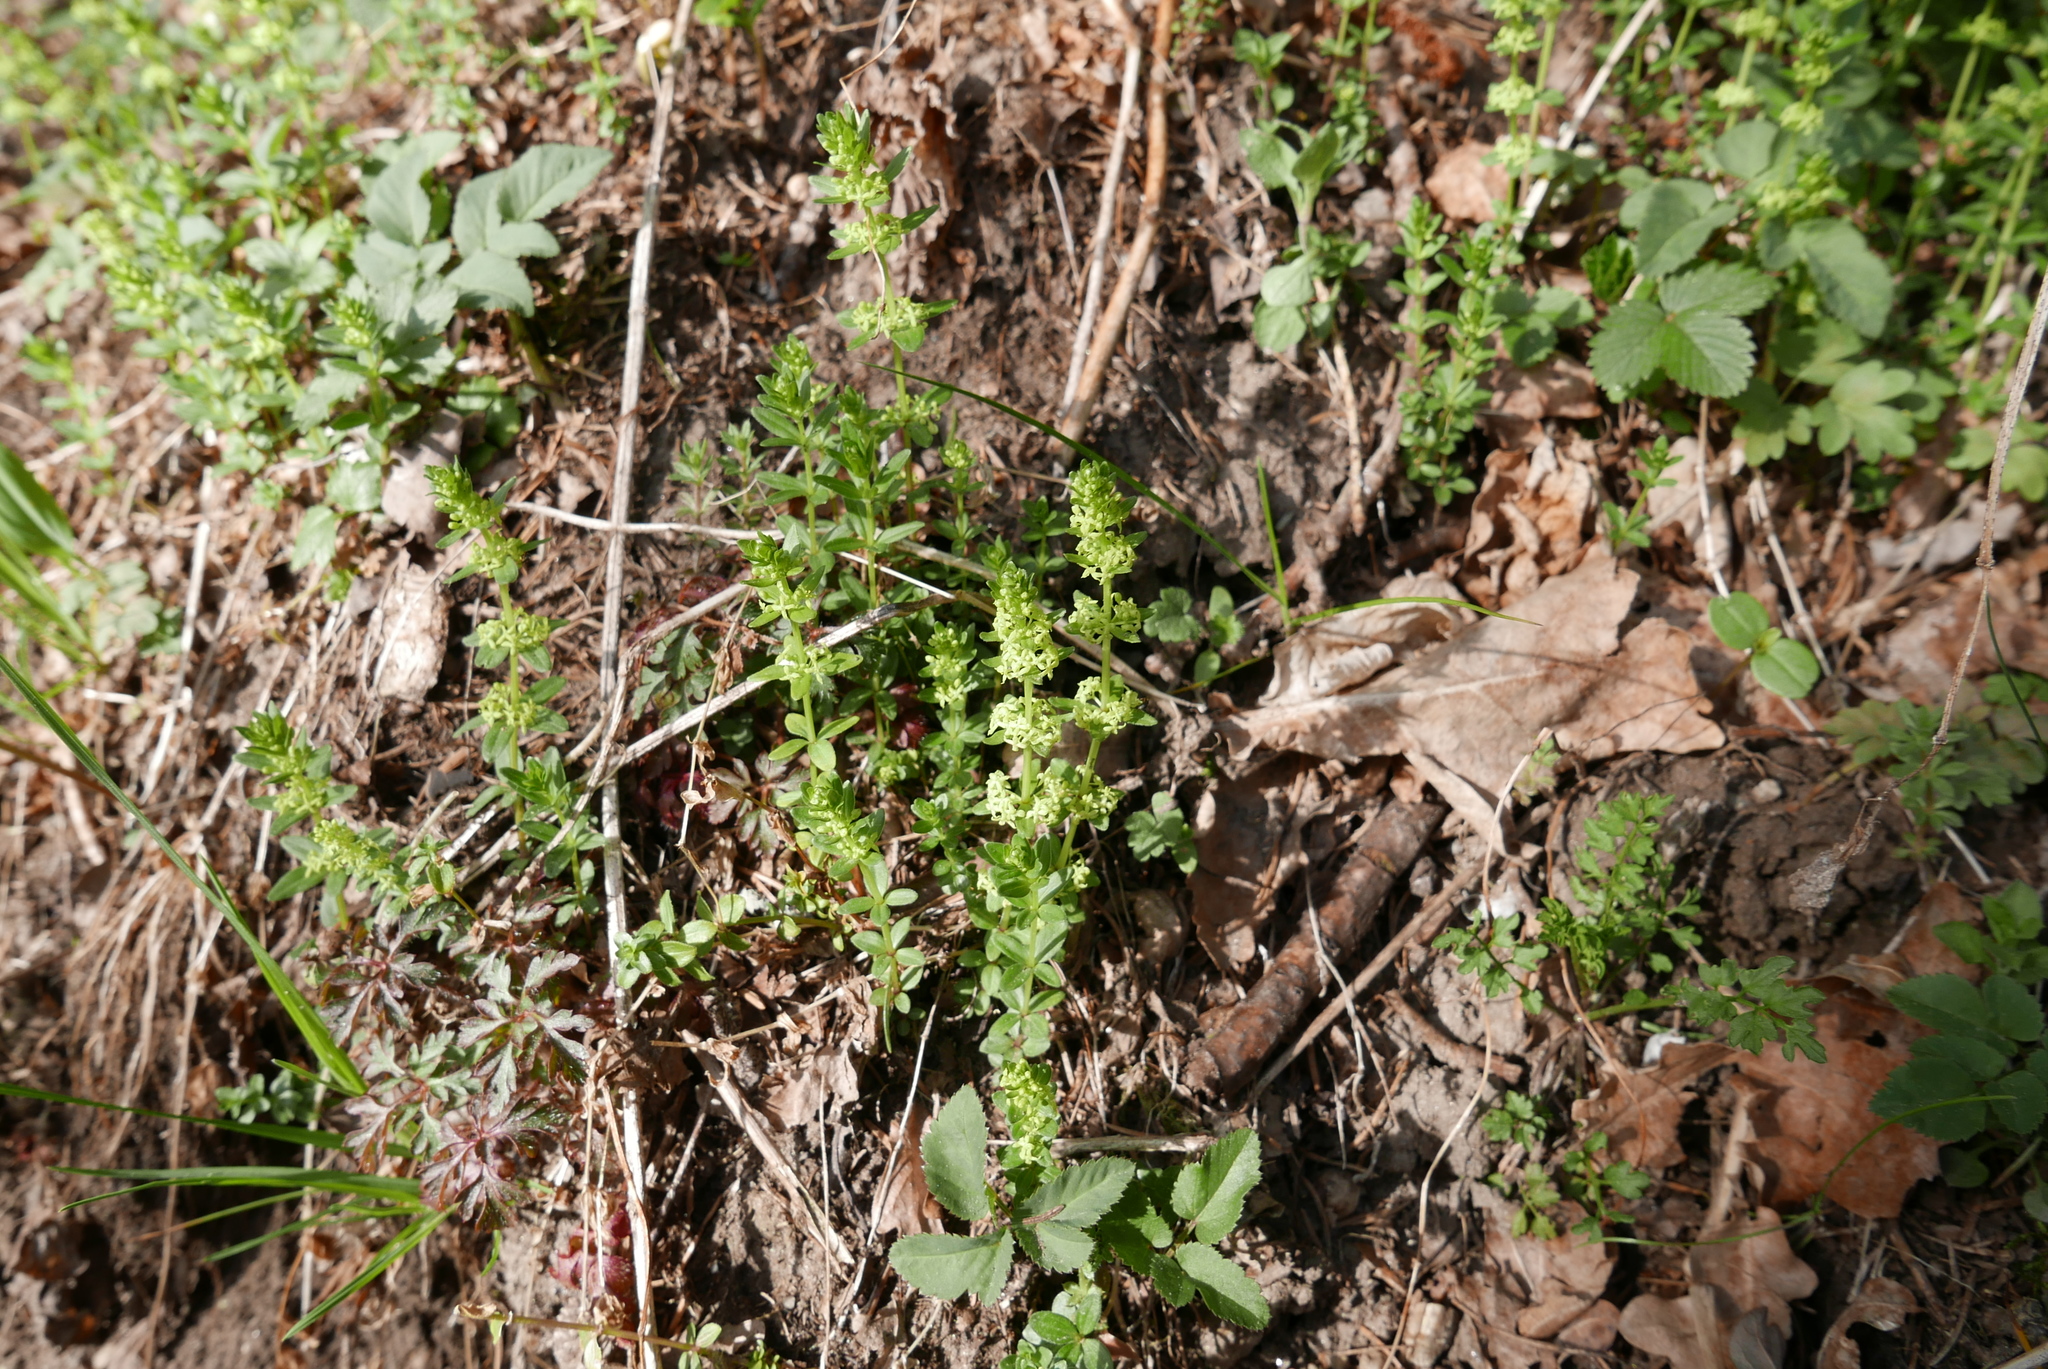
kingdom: Plantae
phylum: Tracheophyta
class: Magnoliopsida
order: Gentianales
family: Rubiaceae
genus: Cruciata
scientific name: Cruciata glabra
